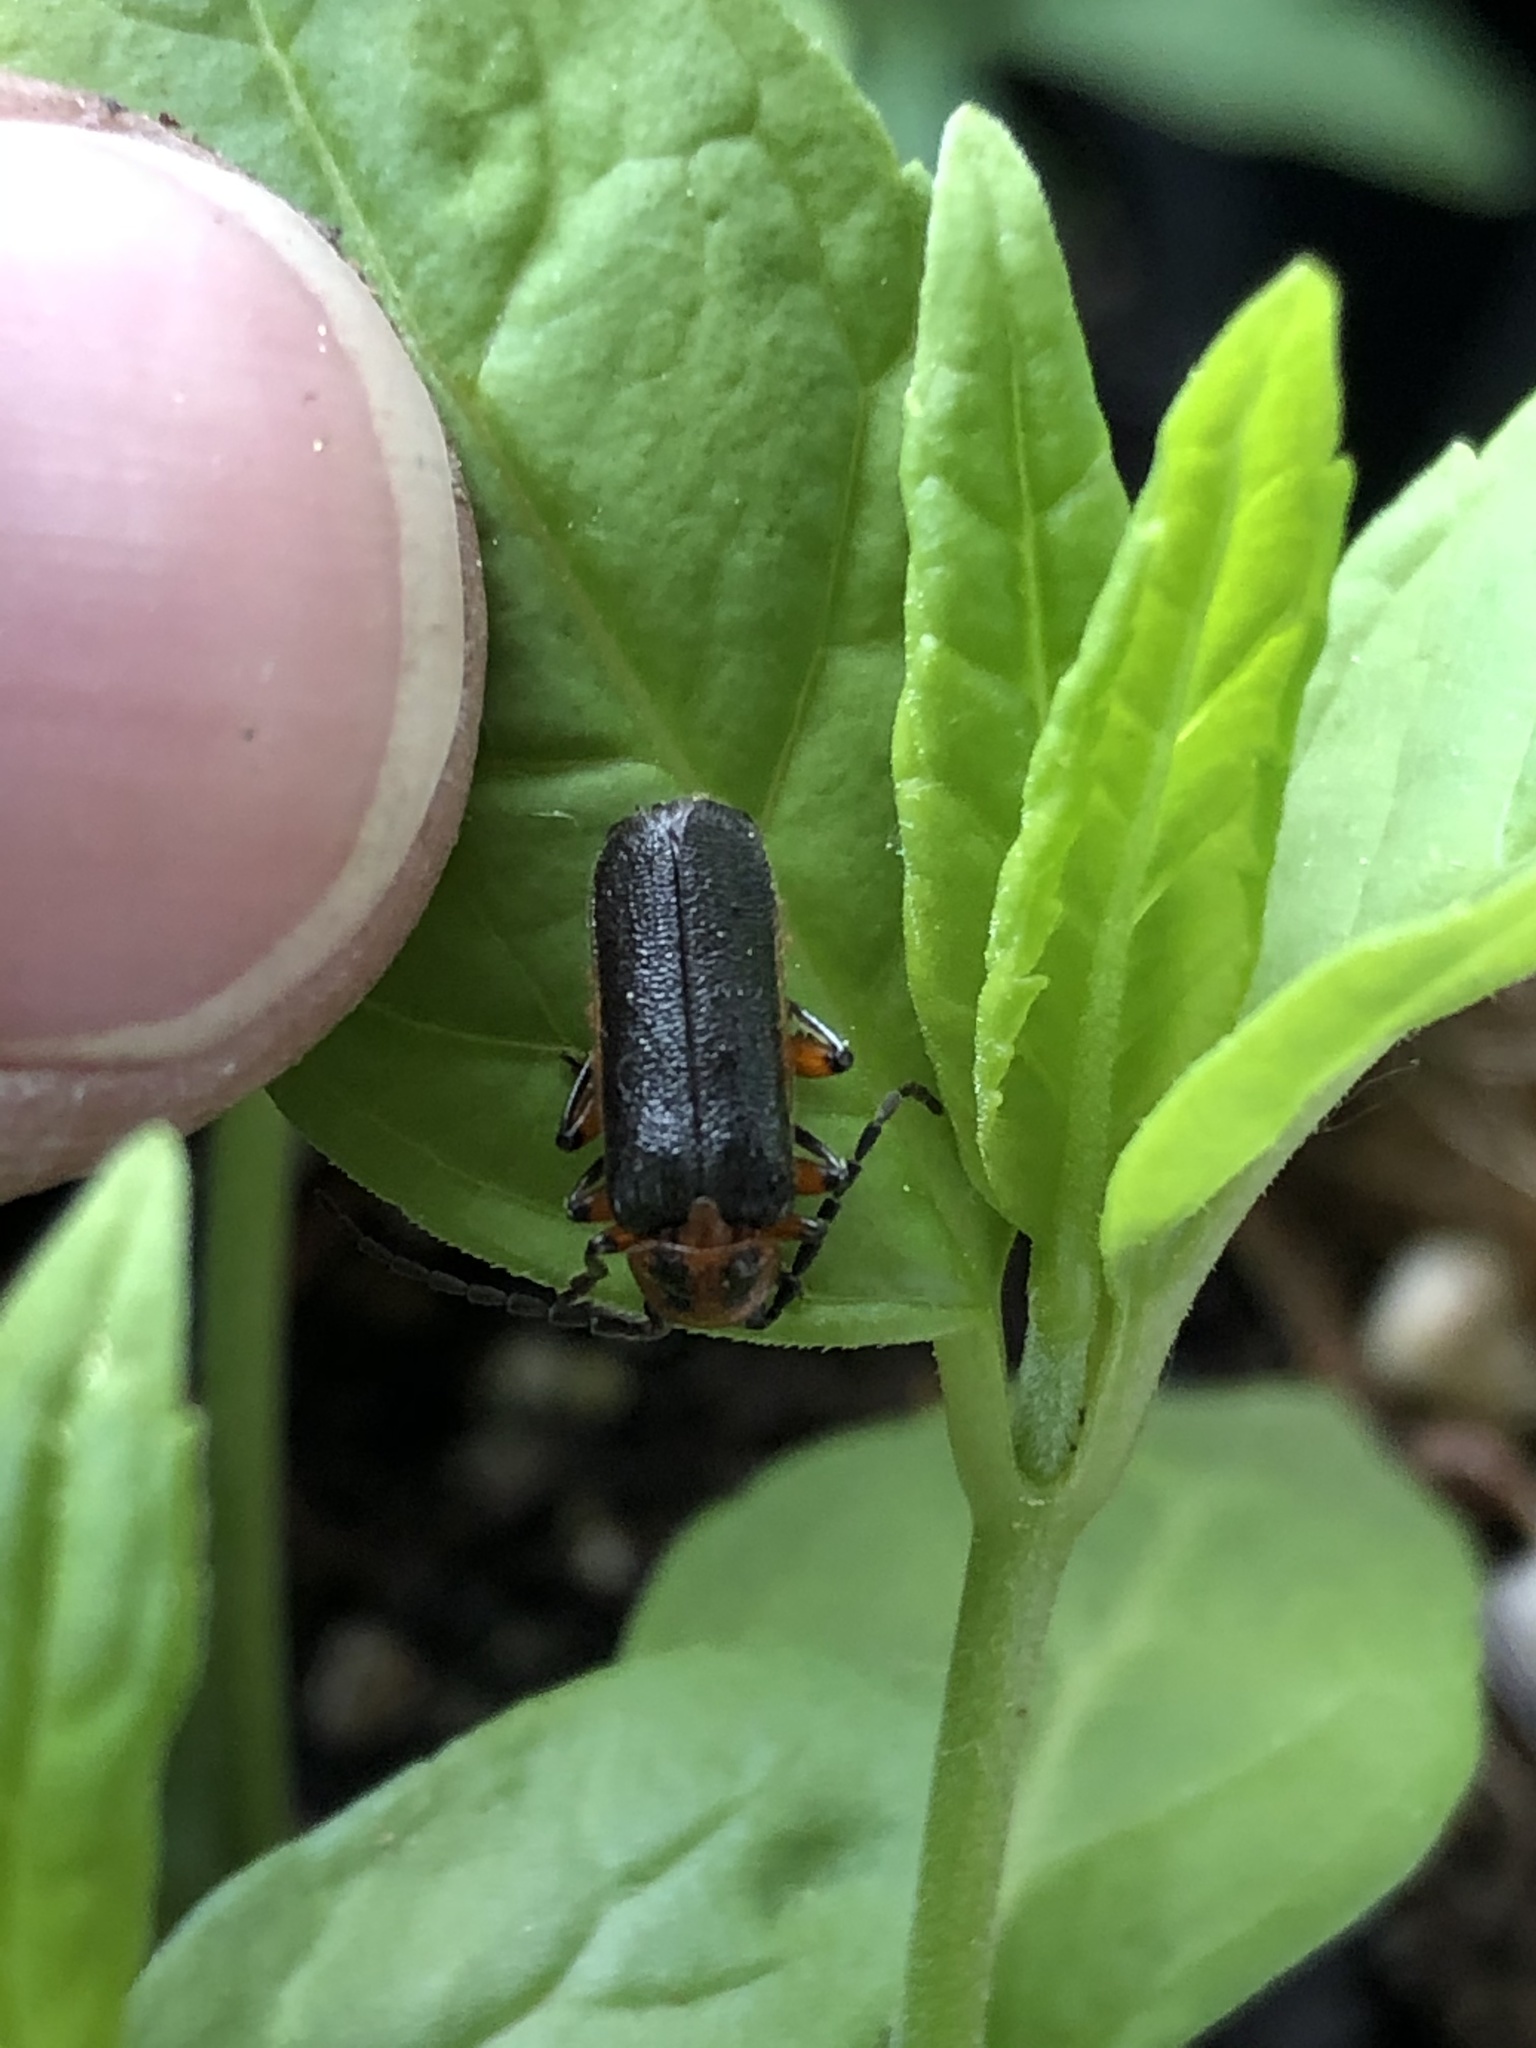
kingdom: Animalia
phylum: Arthropoda
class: Insecta
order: Coleoptera
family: Cantharidae
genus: Atalantycha
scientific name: Atalantycha bilineata
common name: Two-lined leatherwing
